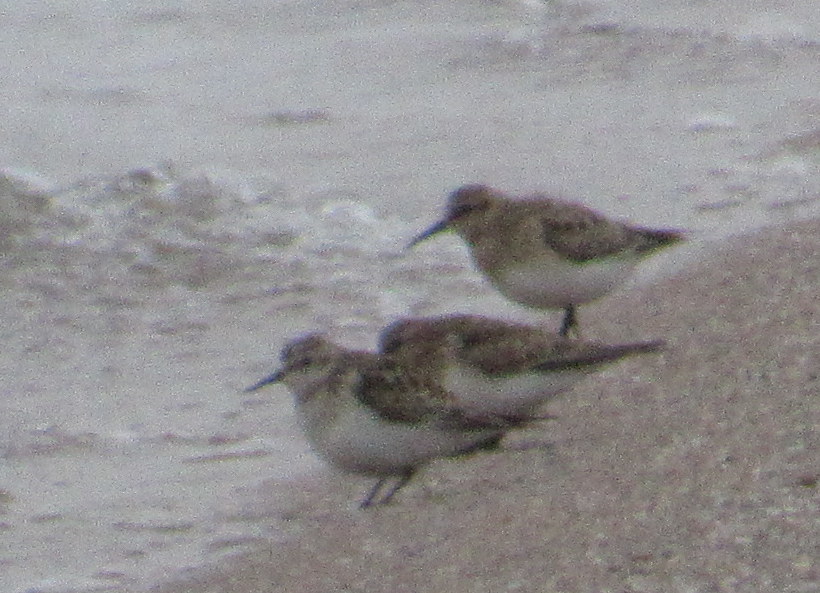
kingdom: Animalia
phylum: Chordata
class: Aves
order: Charadriiformes
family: Scolopacidae
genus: Calidris
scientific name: Calidris bairdii
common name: Baird's sandpiper
